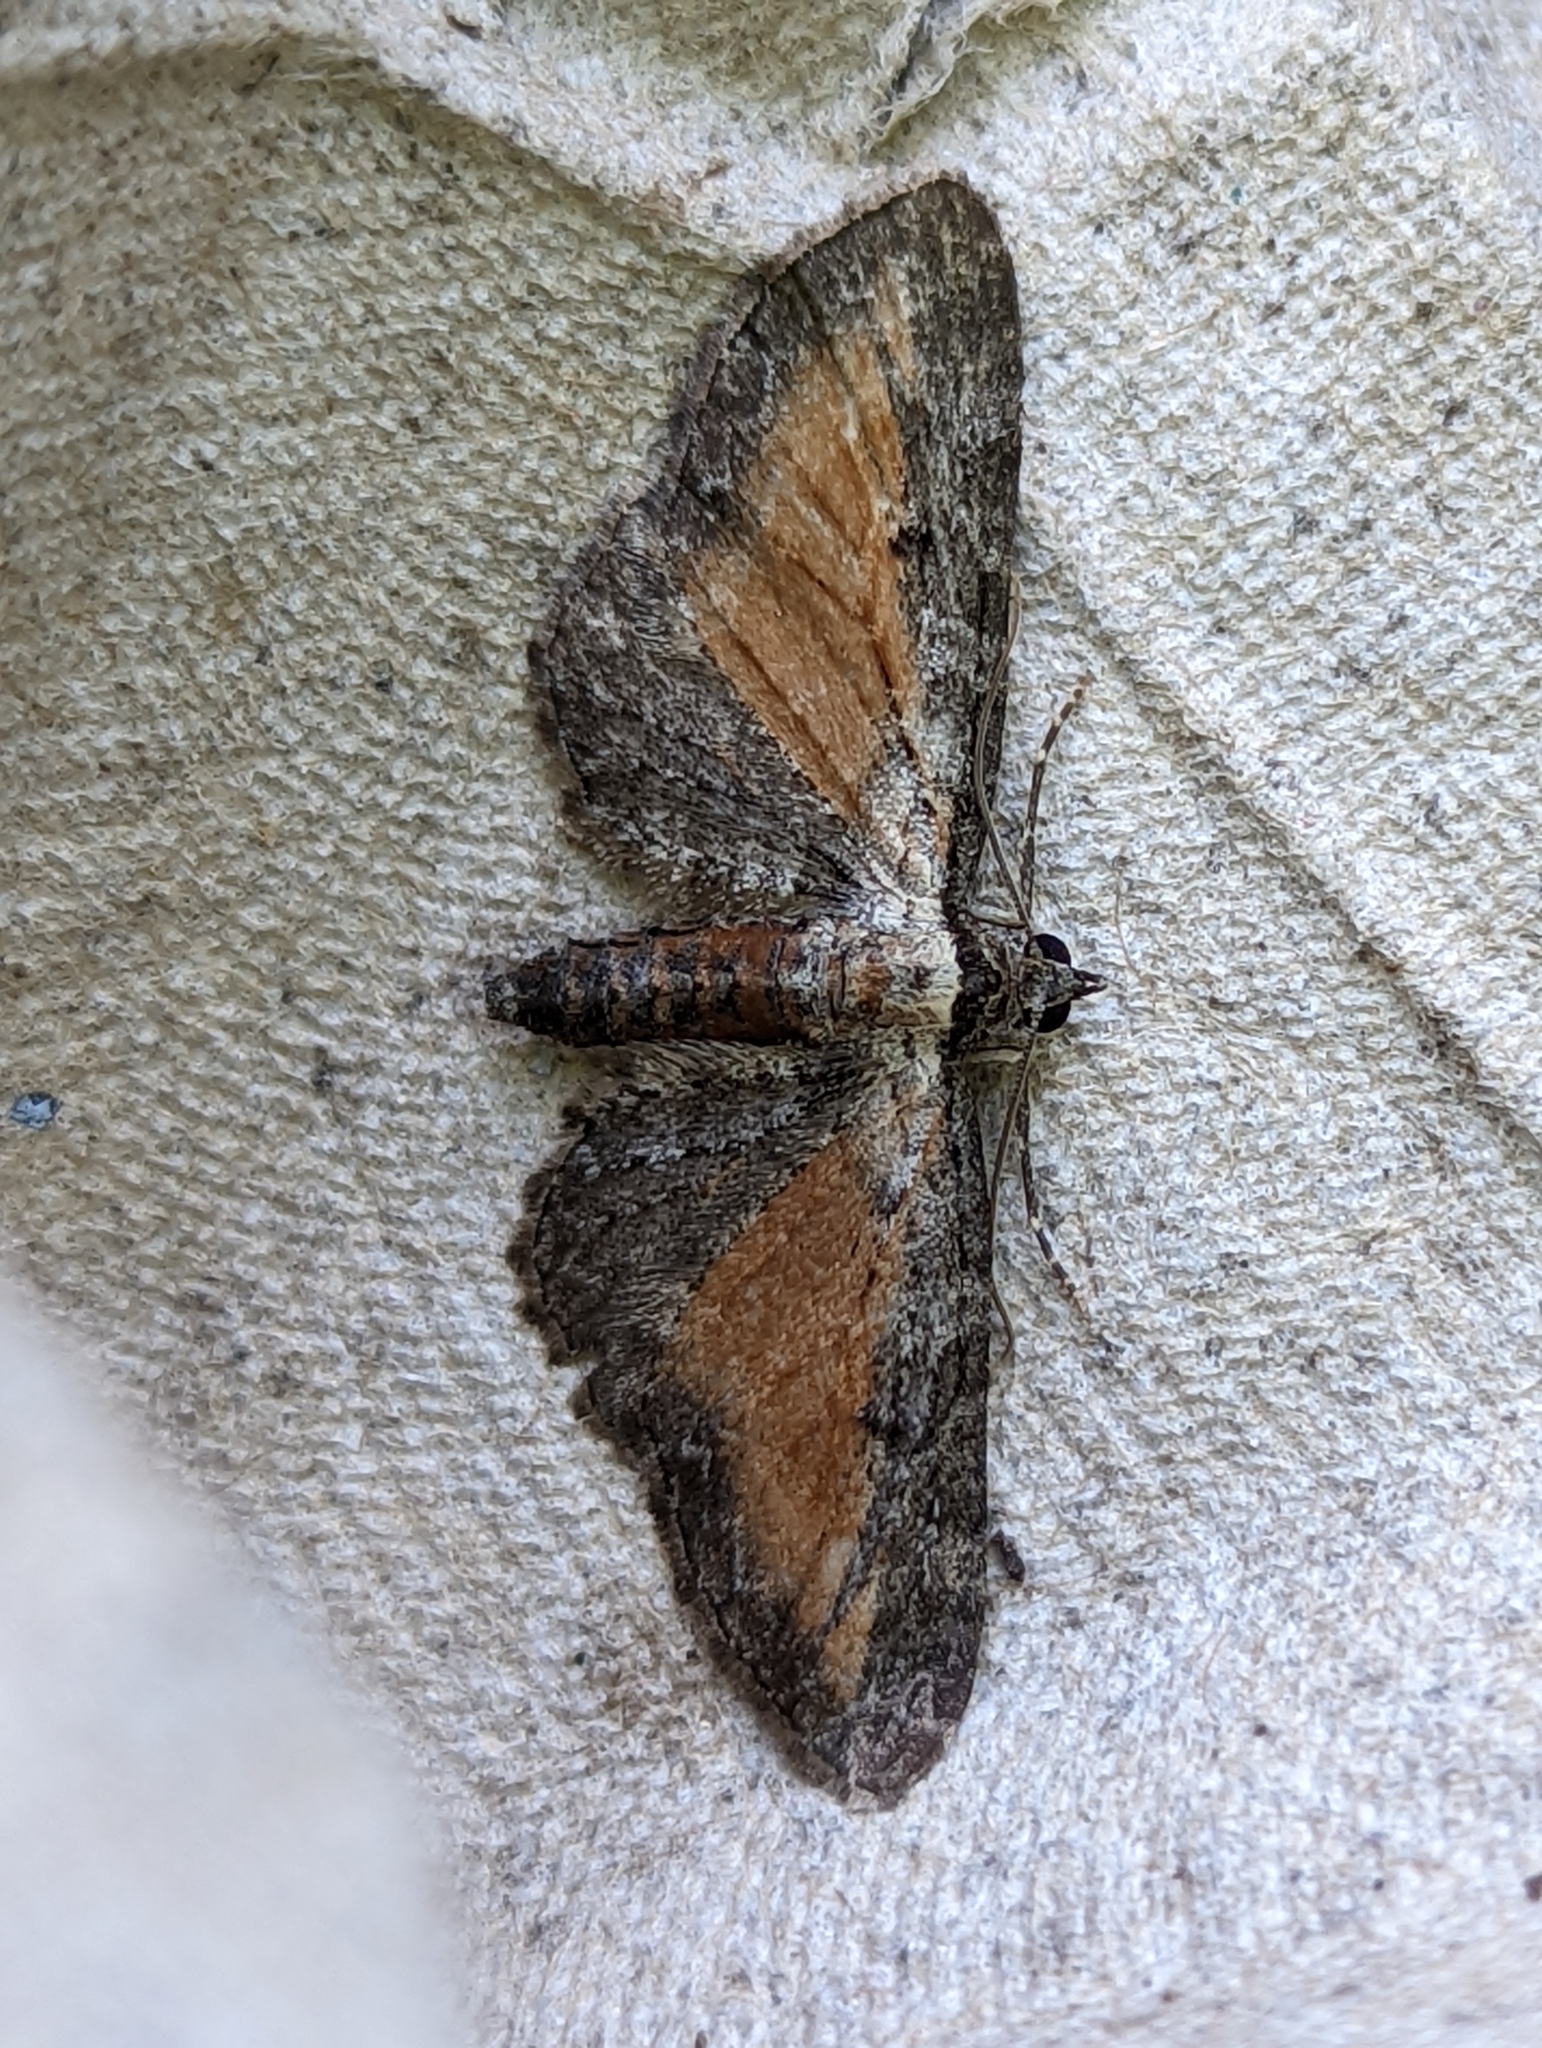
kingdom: Animalia
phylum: Arthropoda
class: Insecta
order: Lepidoptera
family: Geometridae
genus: Eupithecia
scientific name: Eupithecia icterata
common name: Tawny speckled pug
